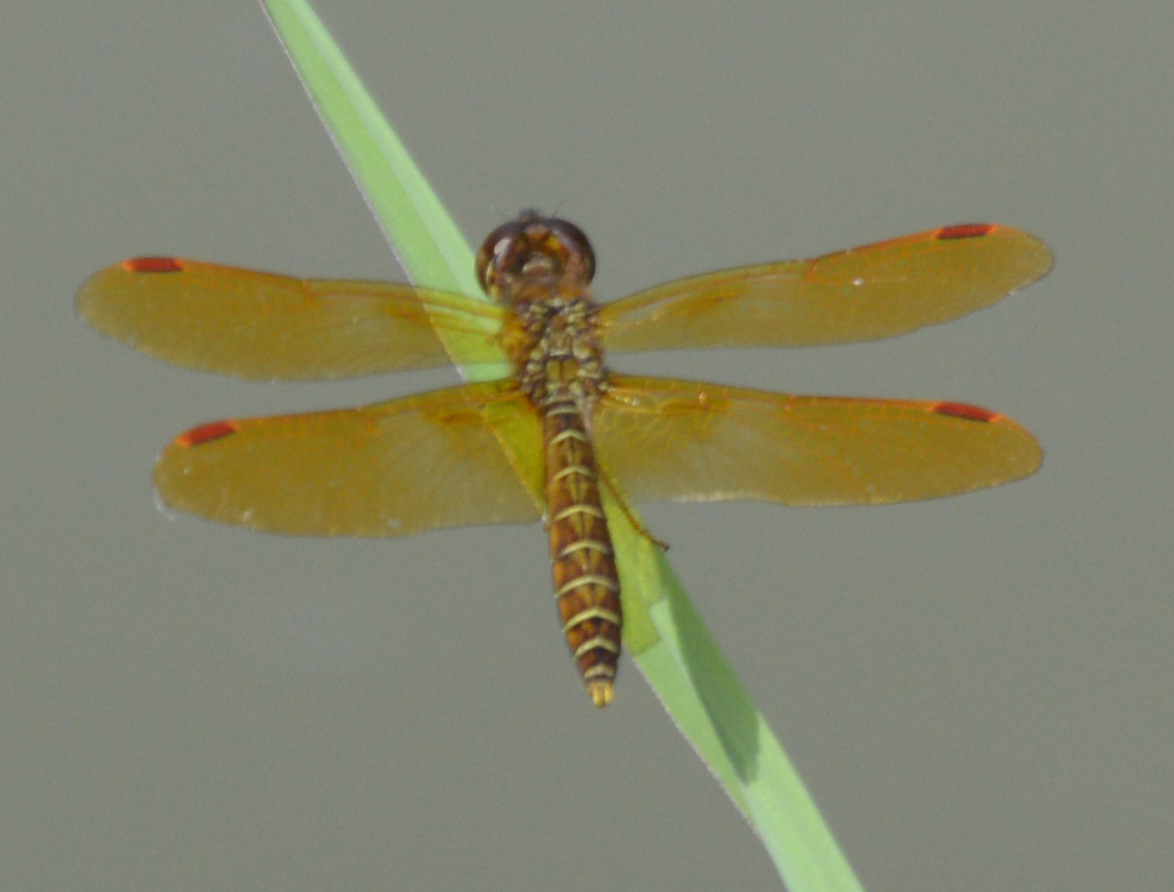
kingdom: Animalia
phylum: Arthropoda
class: Insecta
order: Odonata
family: Libellulidae
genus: Perithemis
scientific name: Perithemis tenera
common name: Eastern amberwing
